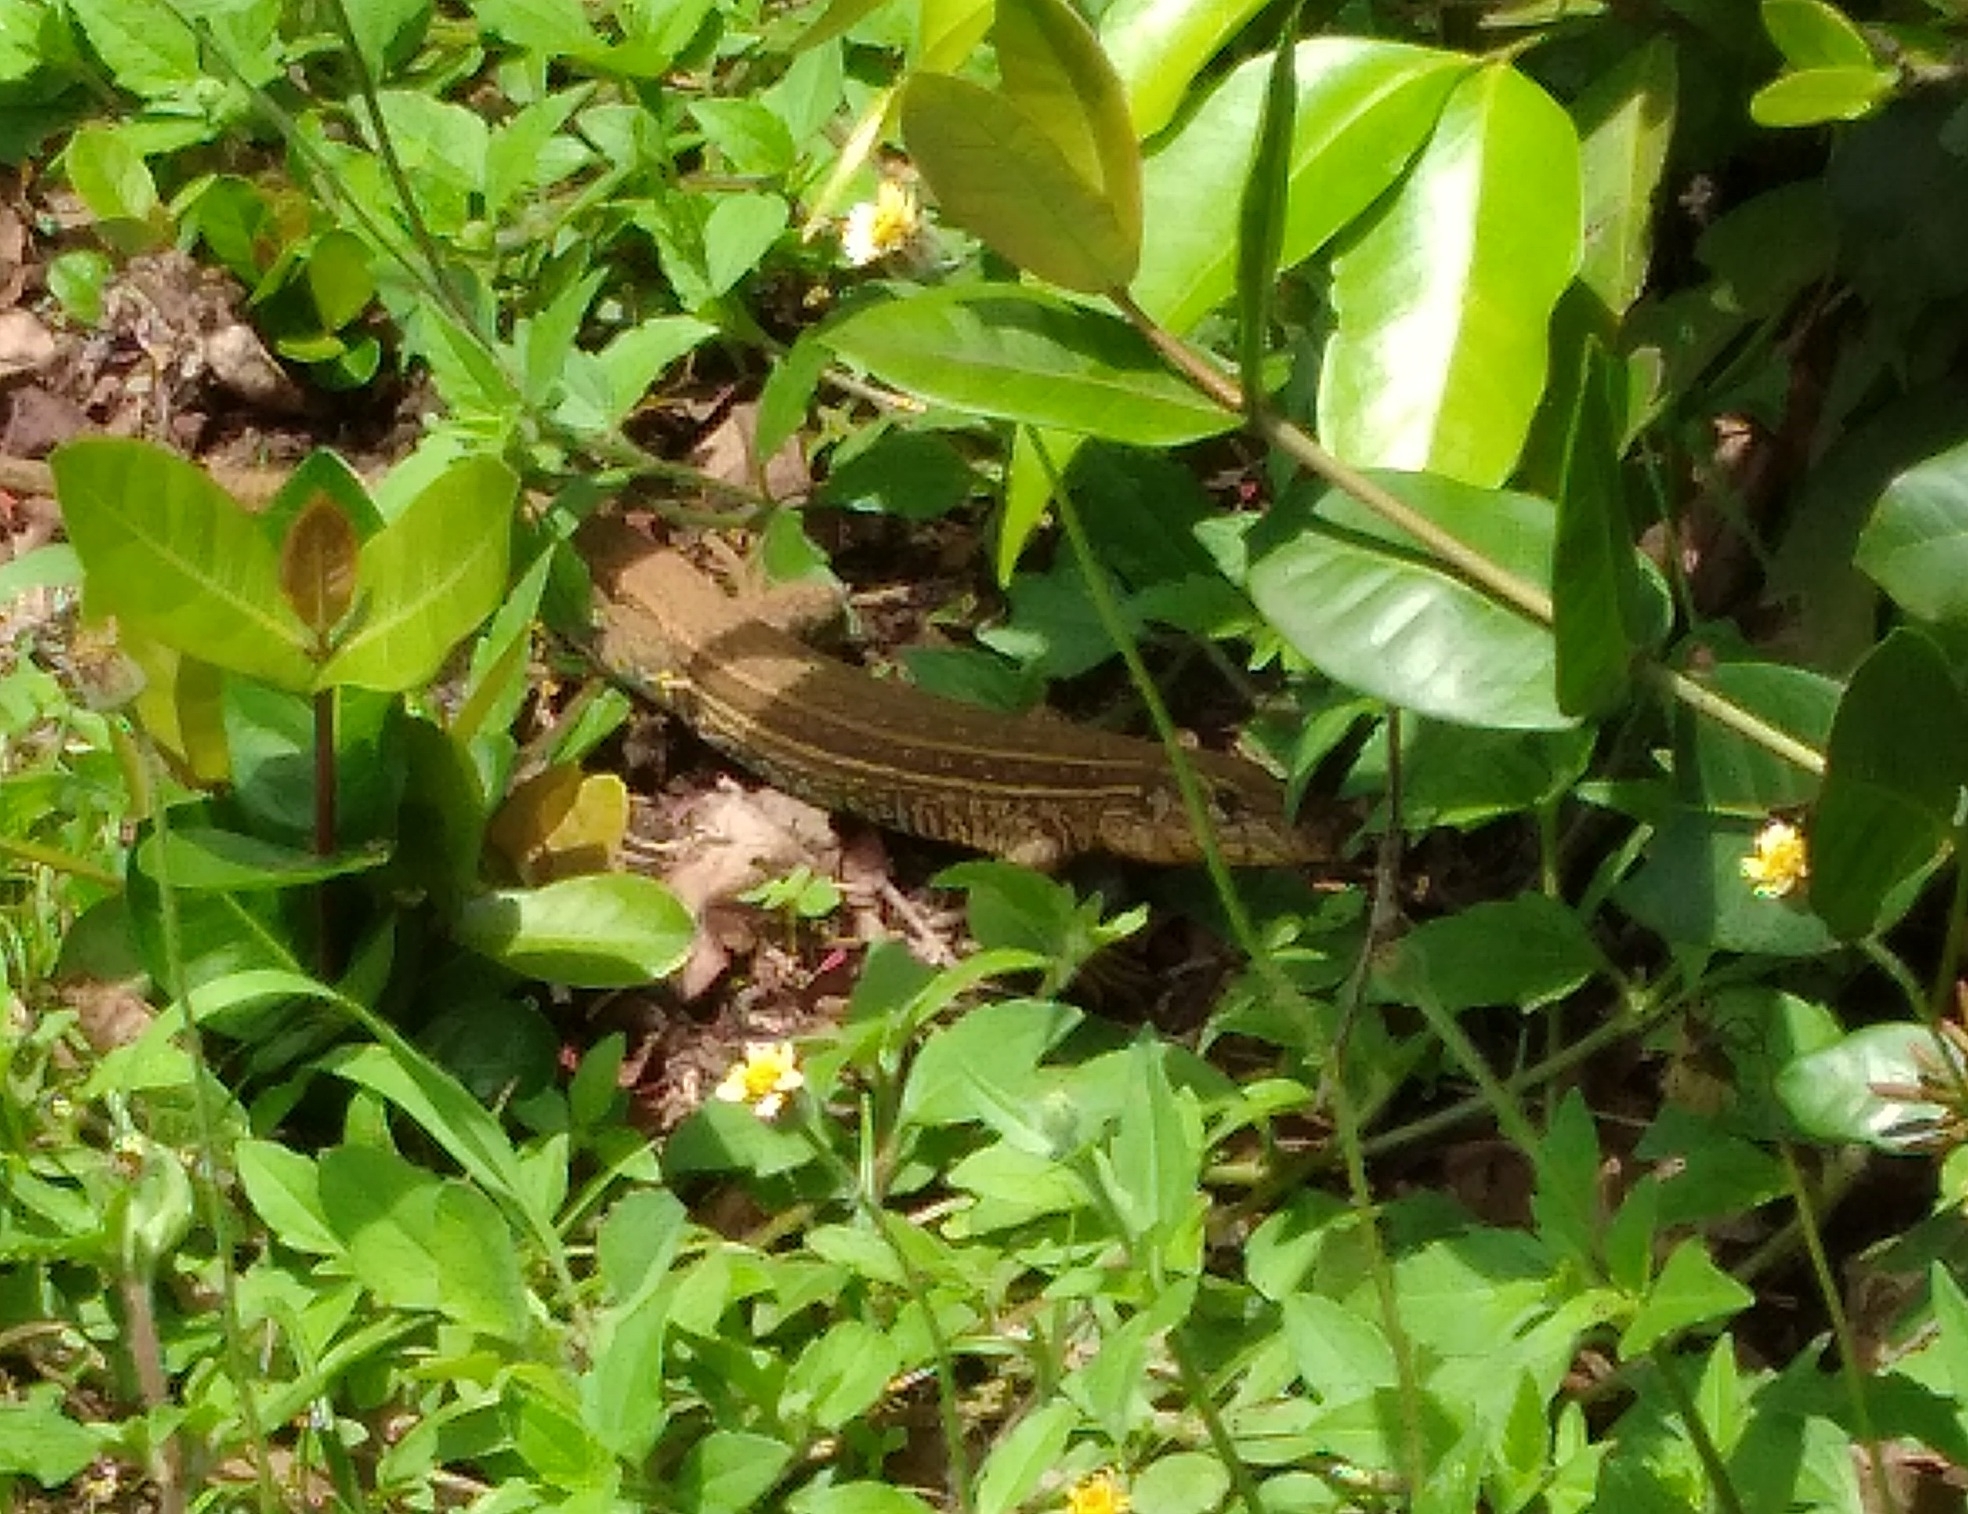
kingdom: Animalia
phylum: Chordata
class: Squamata
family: Teiidae
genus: Holcosus
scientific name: Holcosus quadrilineatus
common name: Four-lined ameiva
